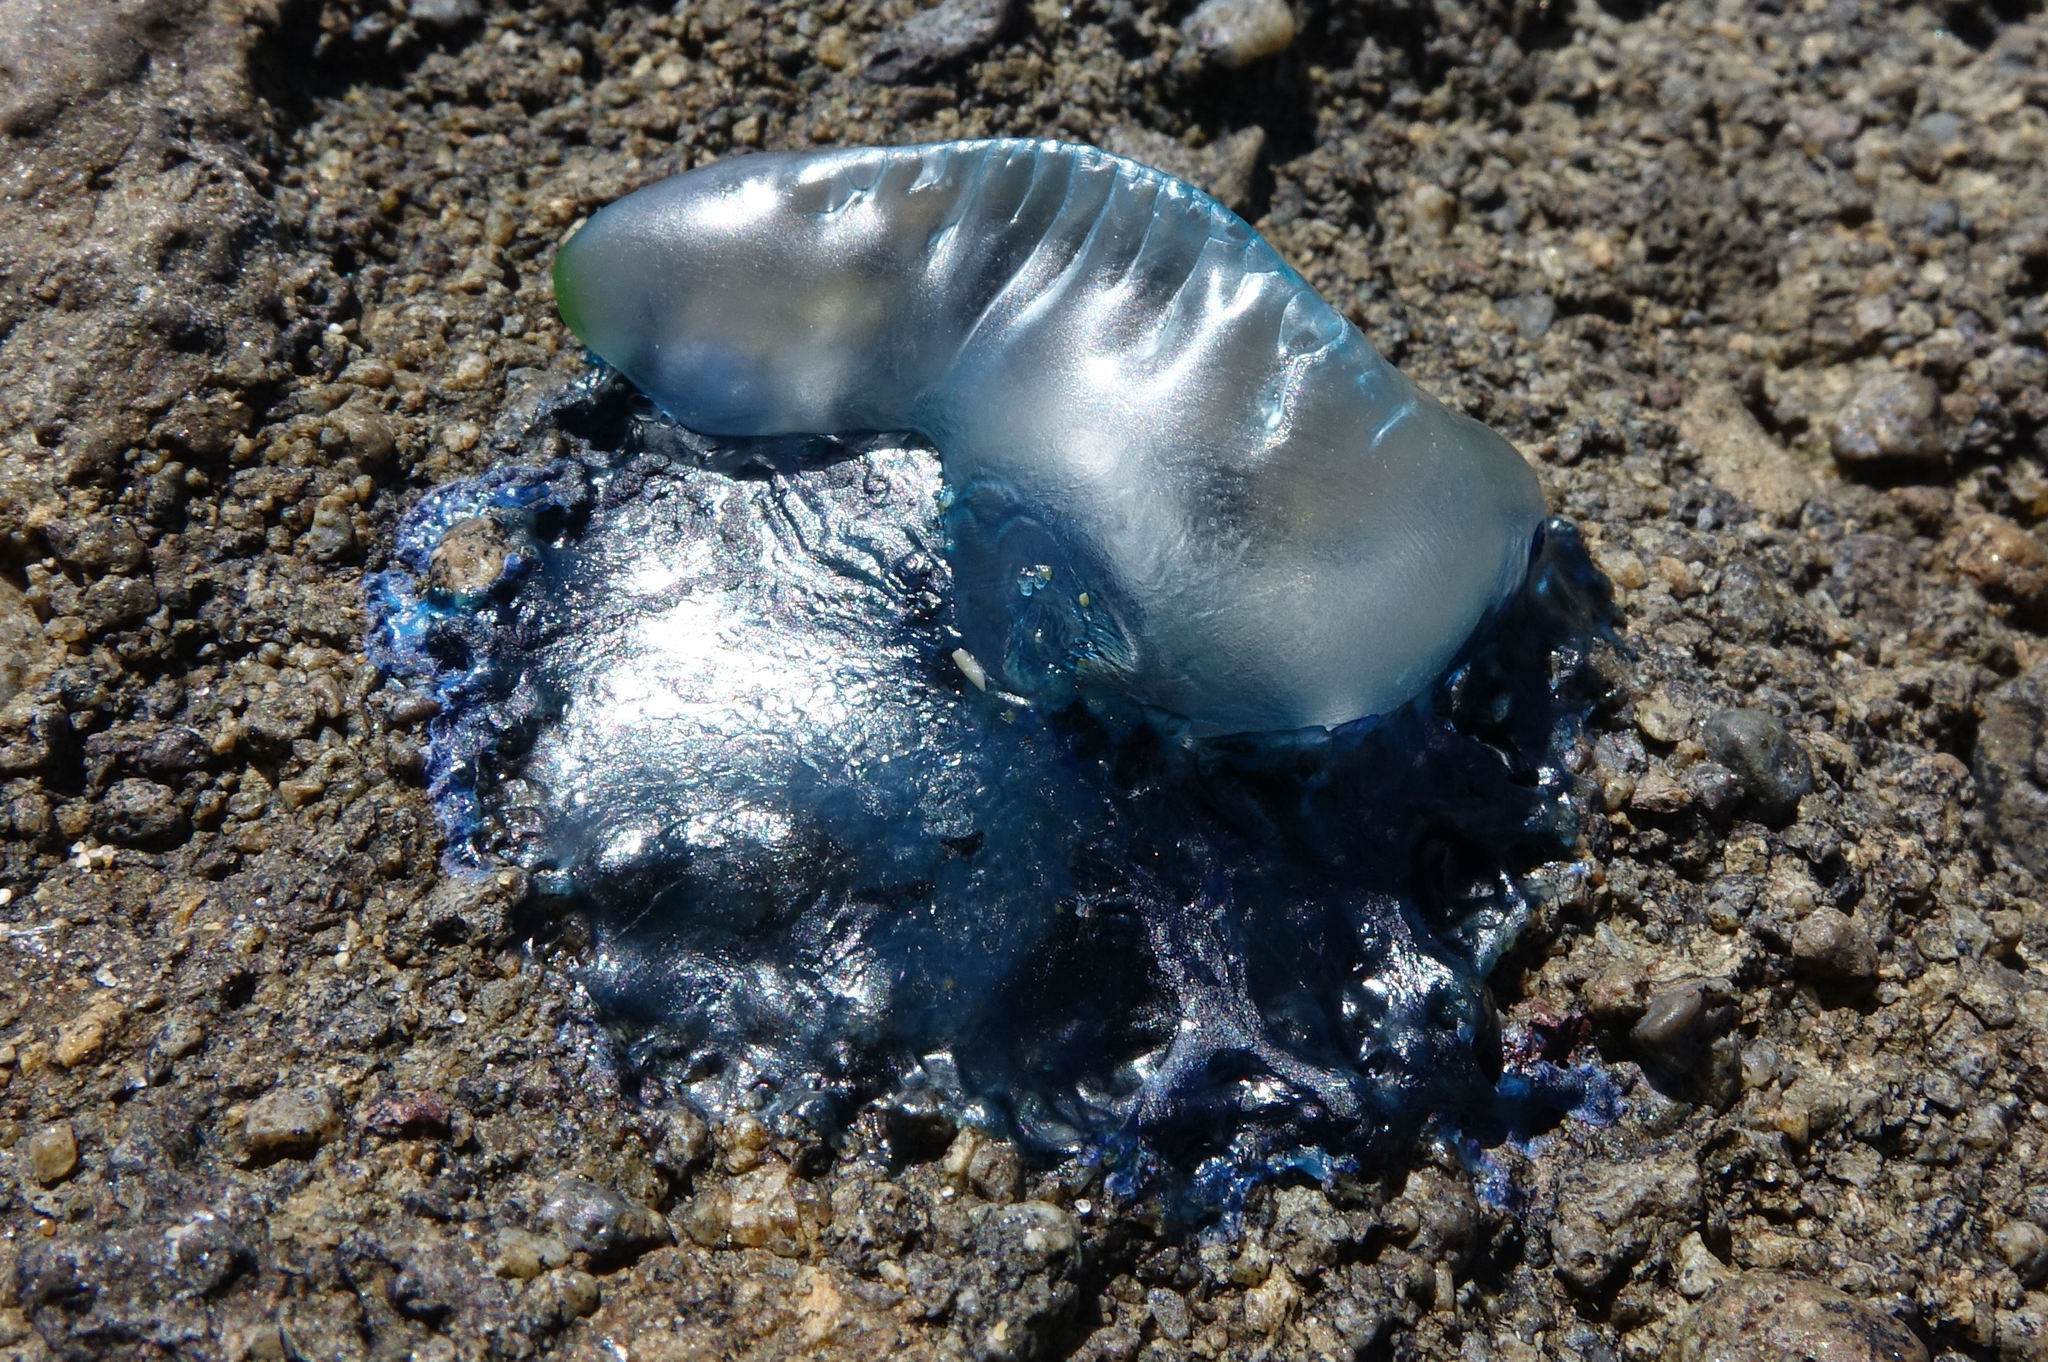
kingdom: Animalia
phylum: Cnidaria
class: Hydrozoa
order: Siphonophorae
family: Physaliidae
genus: Physalia
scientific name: Physalia physalis
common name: Portuguese man-of-war
